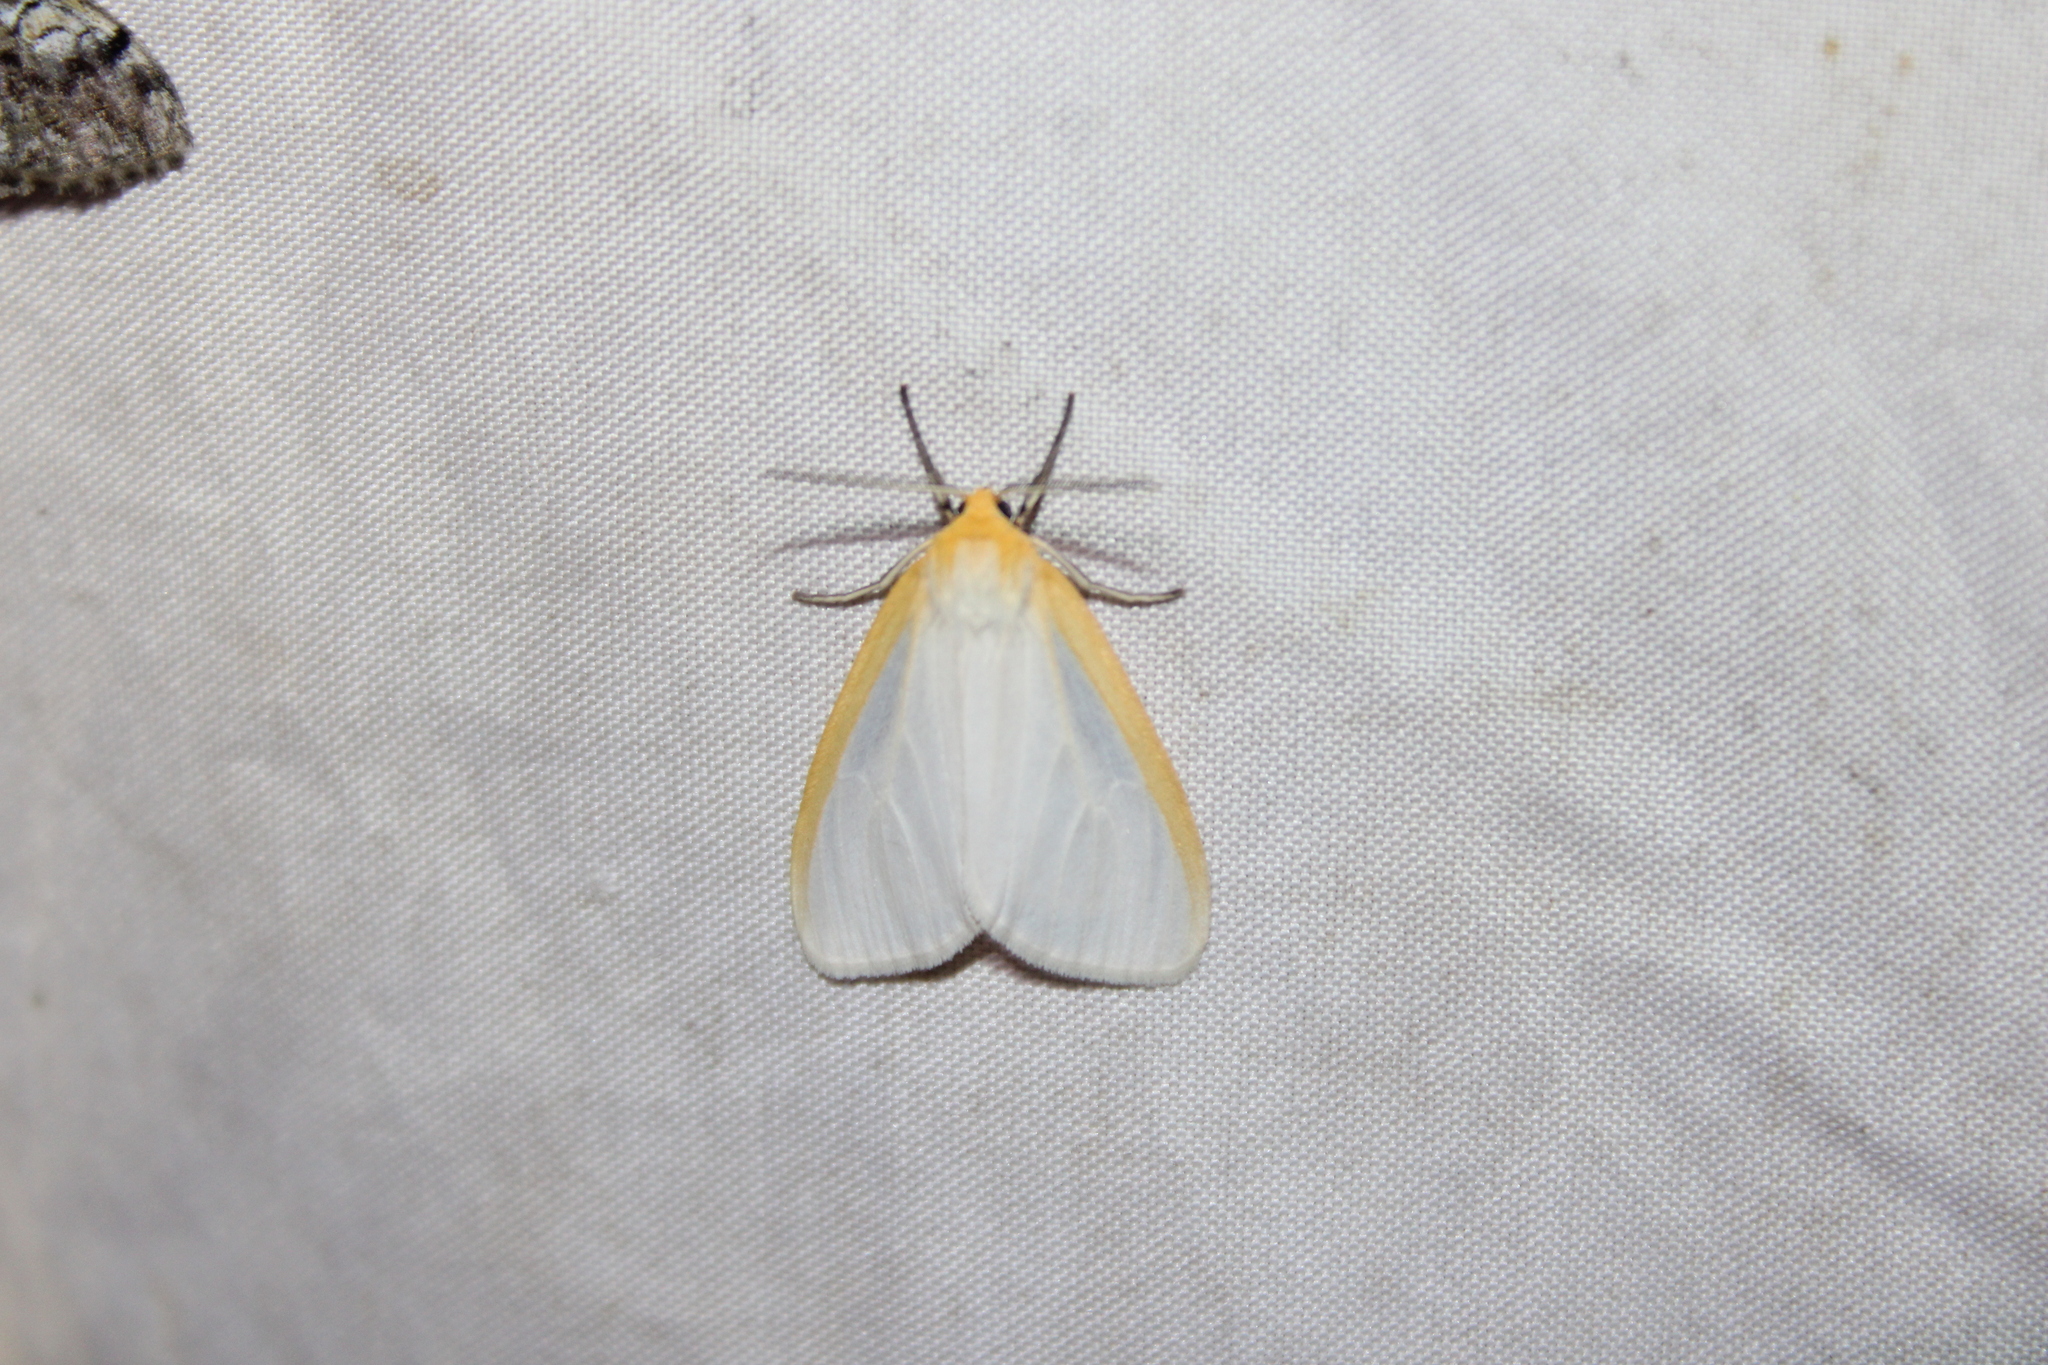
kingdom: Animalia
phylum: Arthropoda
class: Insecta
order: Lepidoptera
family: Erebidae
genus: Cycnia
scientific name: Cycnia tenera
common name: Delicate cycnia moth
